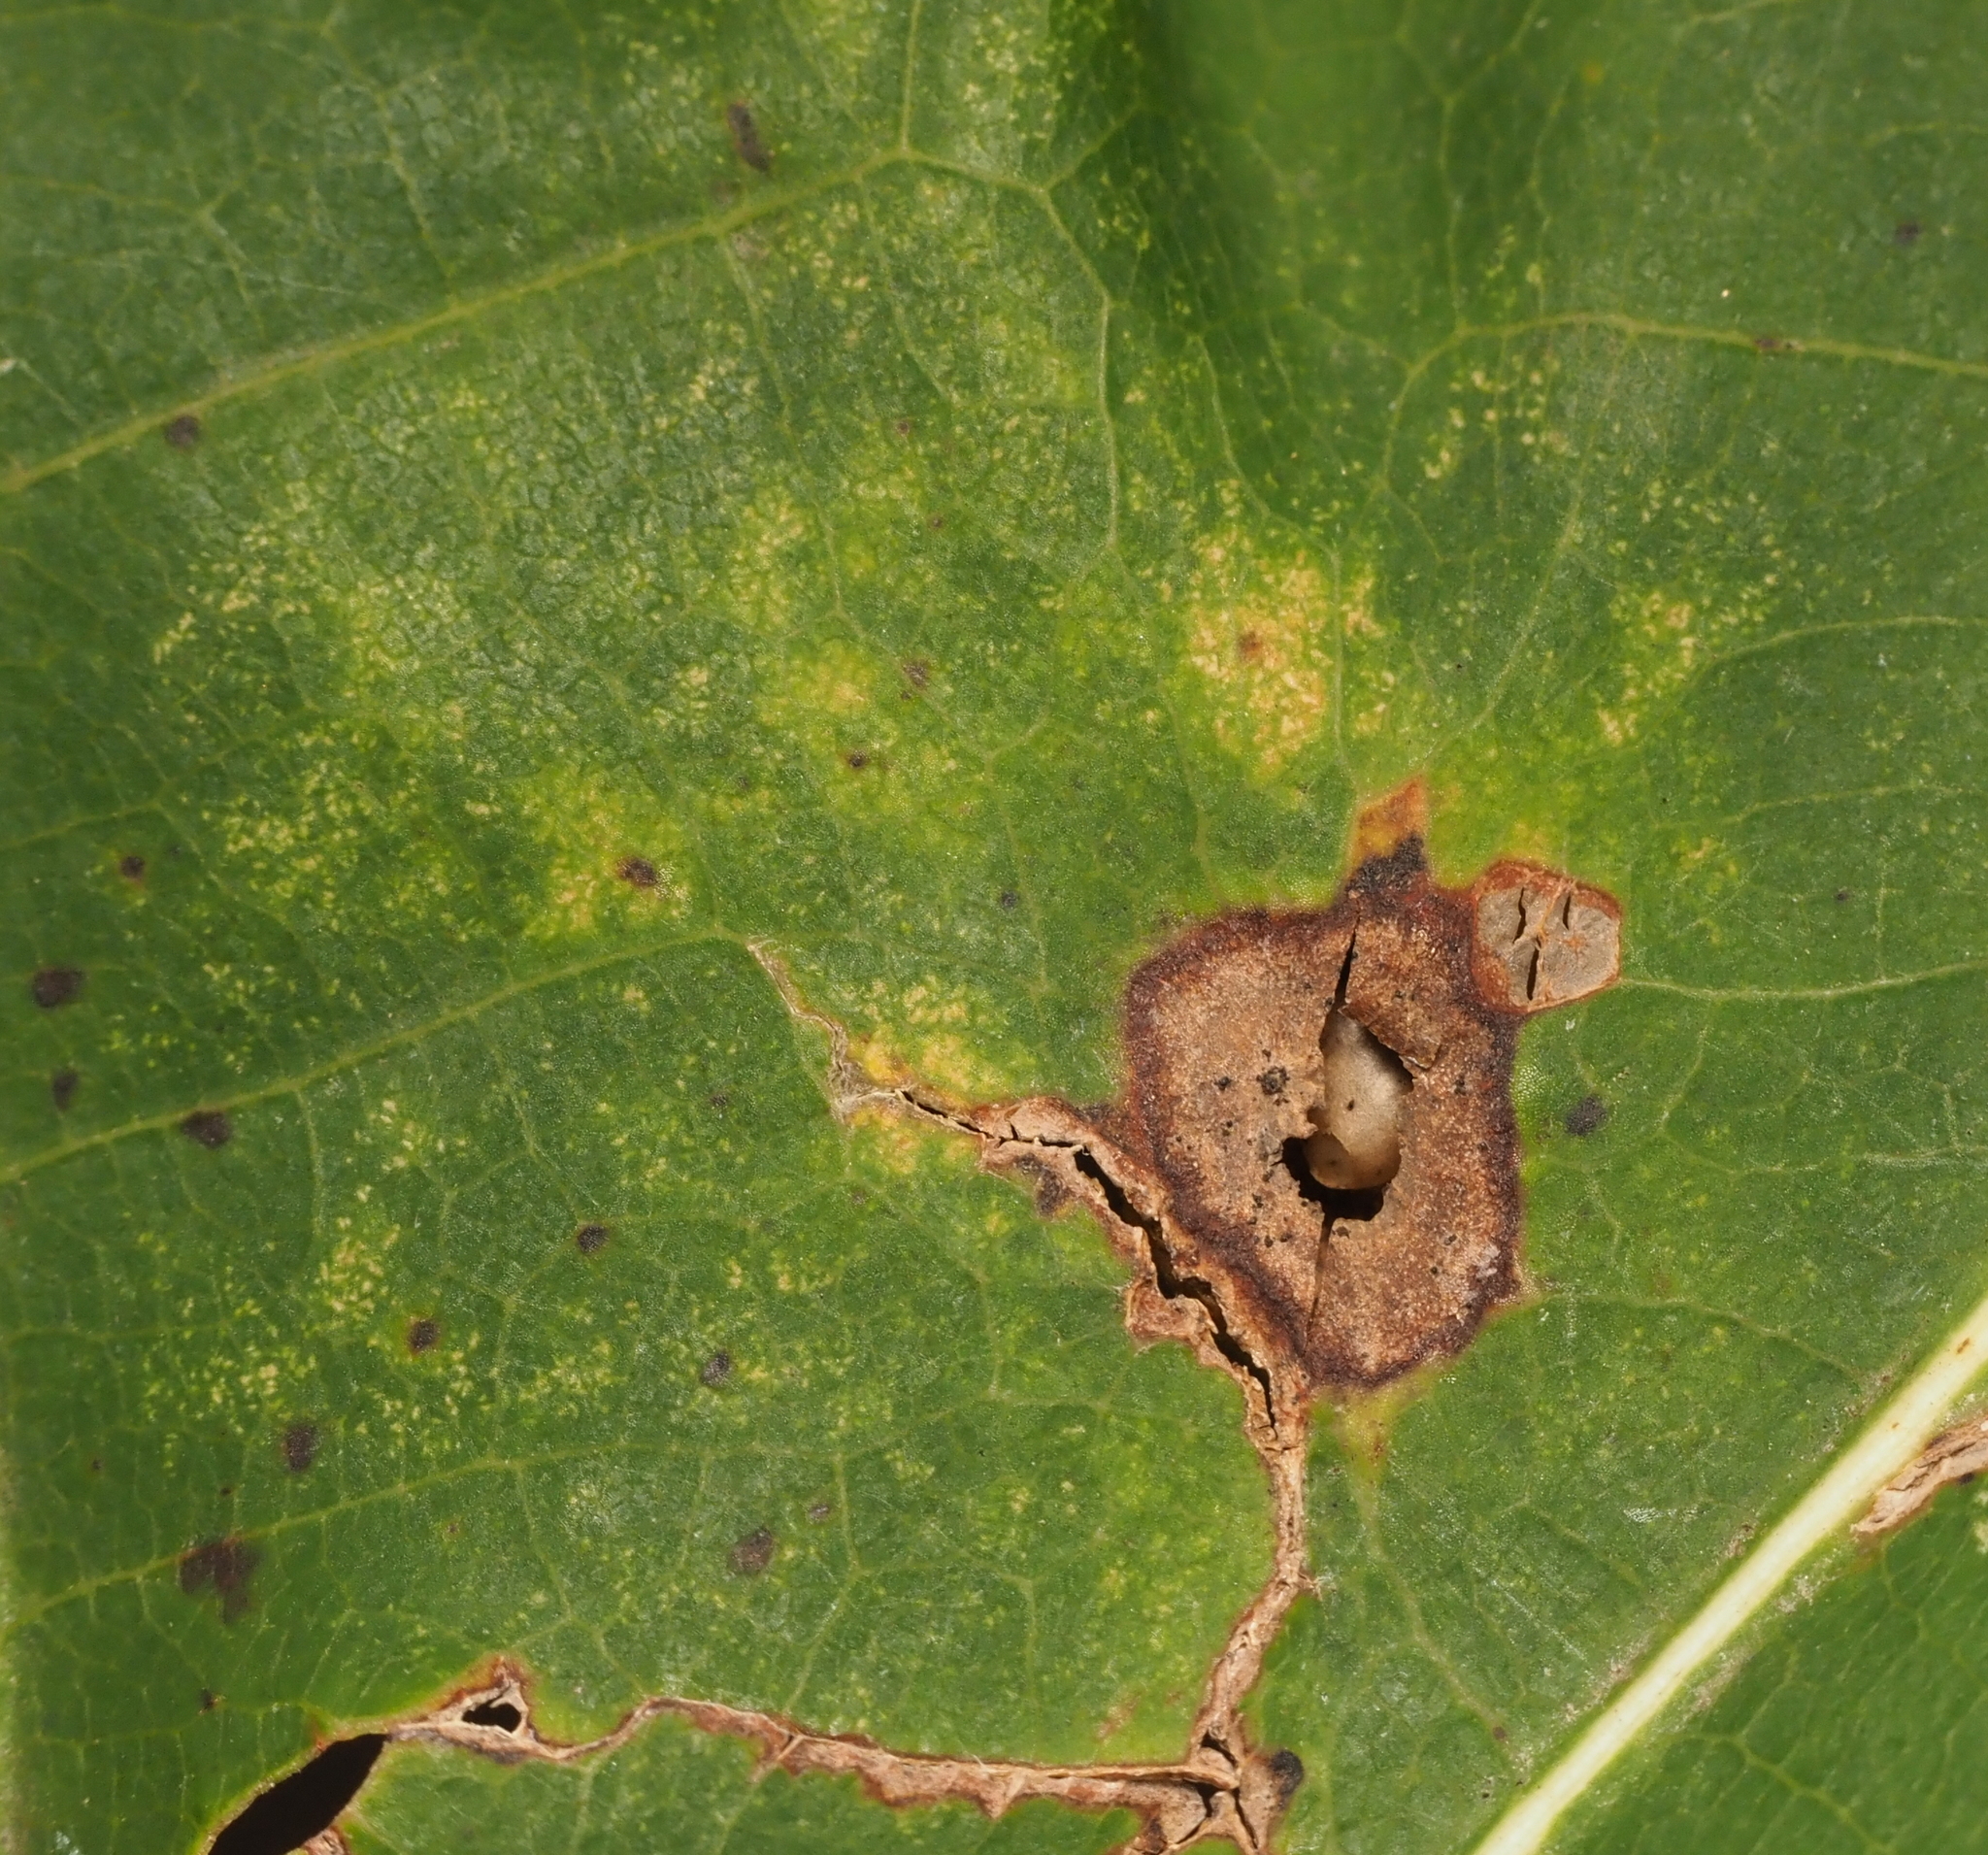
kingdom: Animalia
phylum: Arthropoda
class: Insecta
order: Hymenoptera
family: Cynipidae
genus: Dryocosmus
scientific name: Dryocosmus
